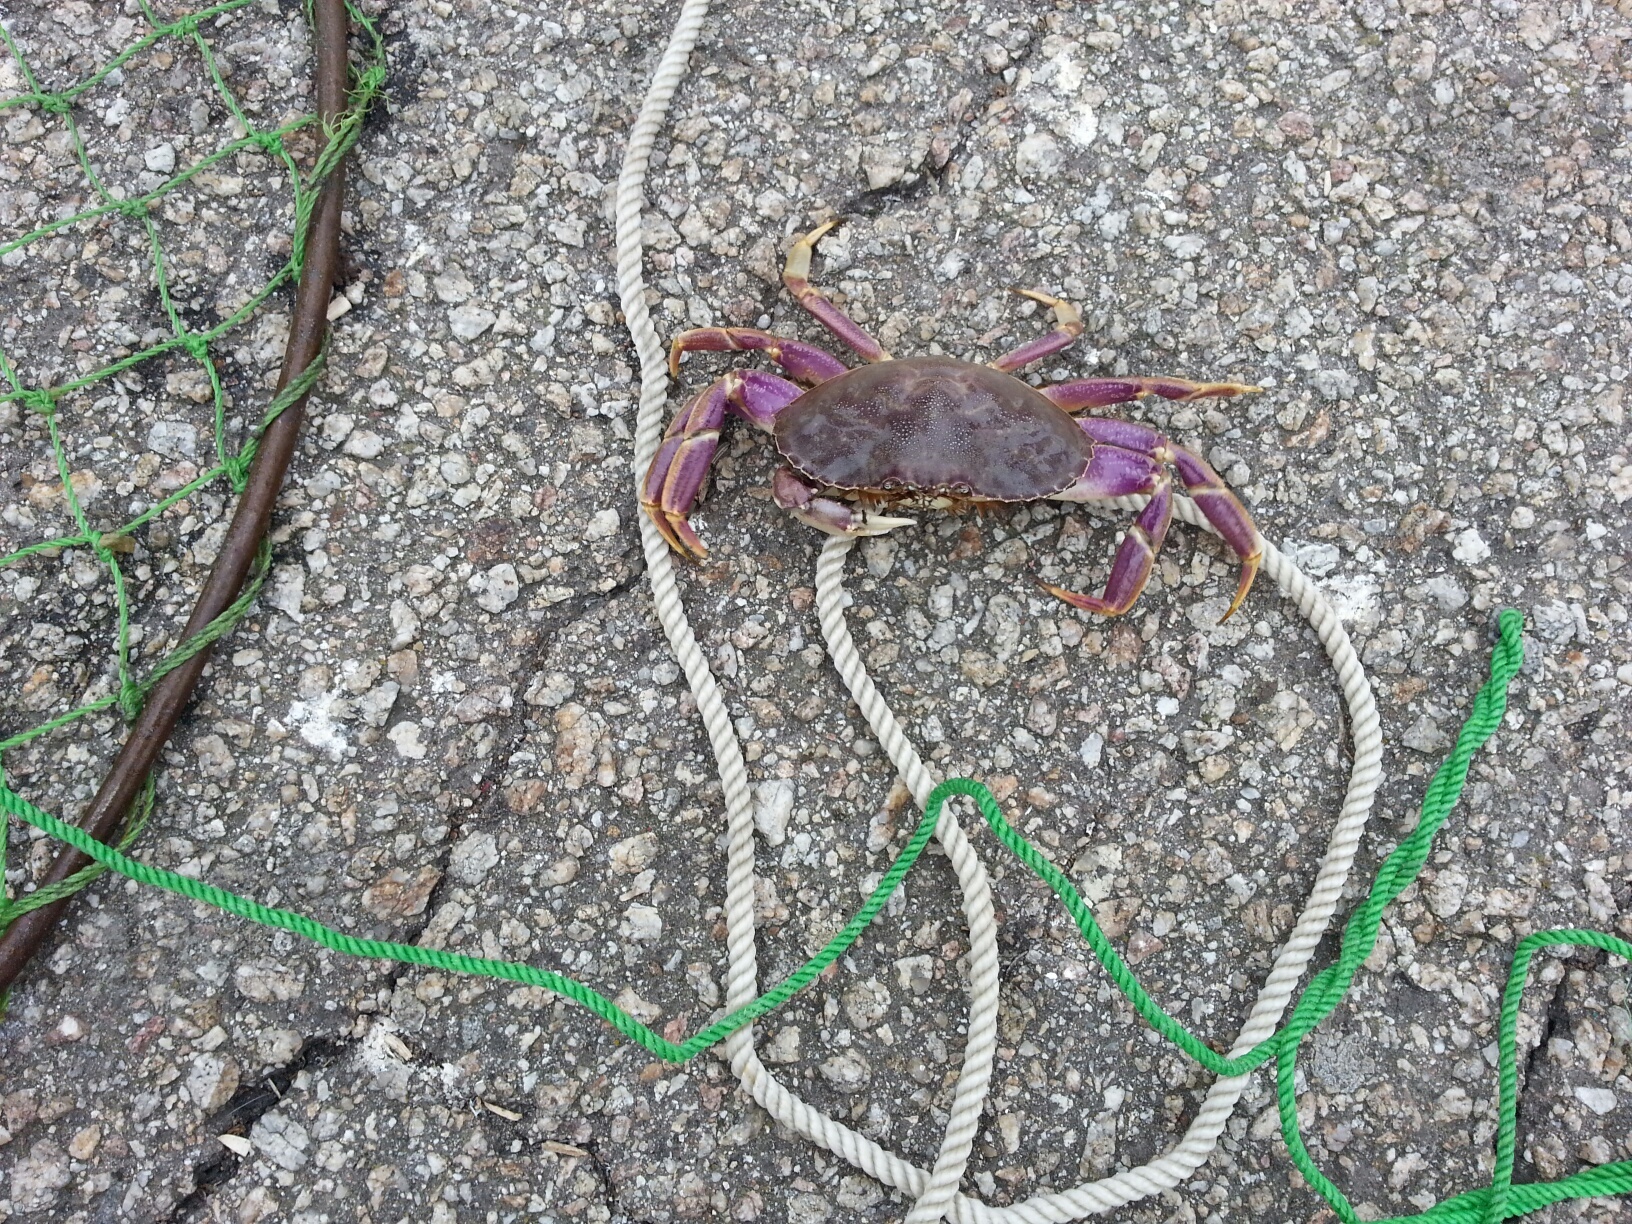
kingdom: Animalia
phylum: Arthropoda
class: Malacostraca
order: Decapoda
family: Cancridae
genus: Metacarcinus
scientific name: Metacarcinus gracilis
